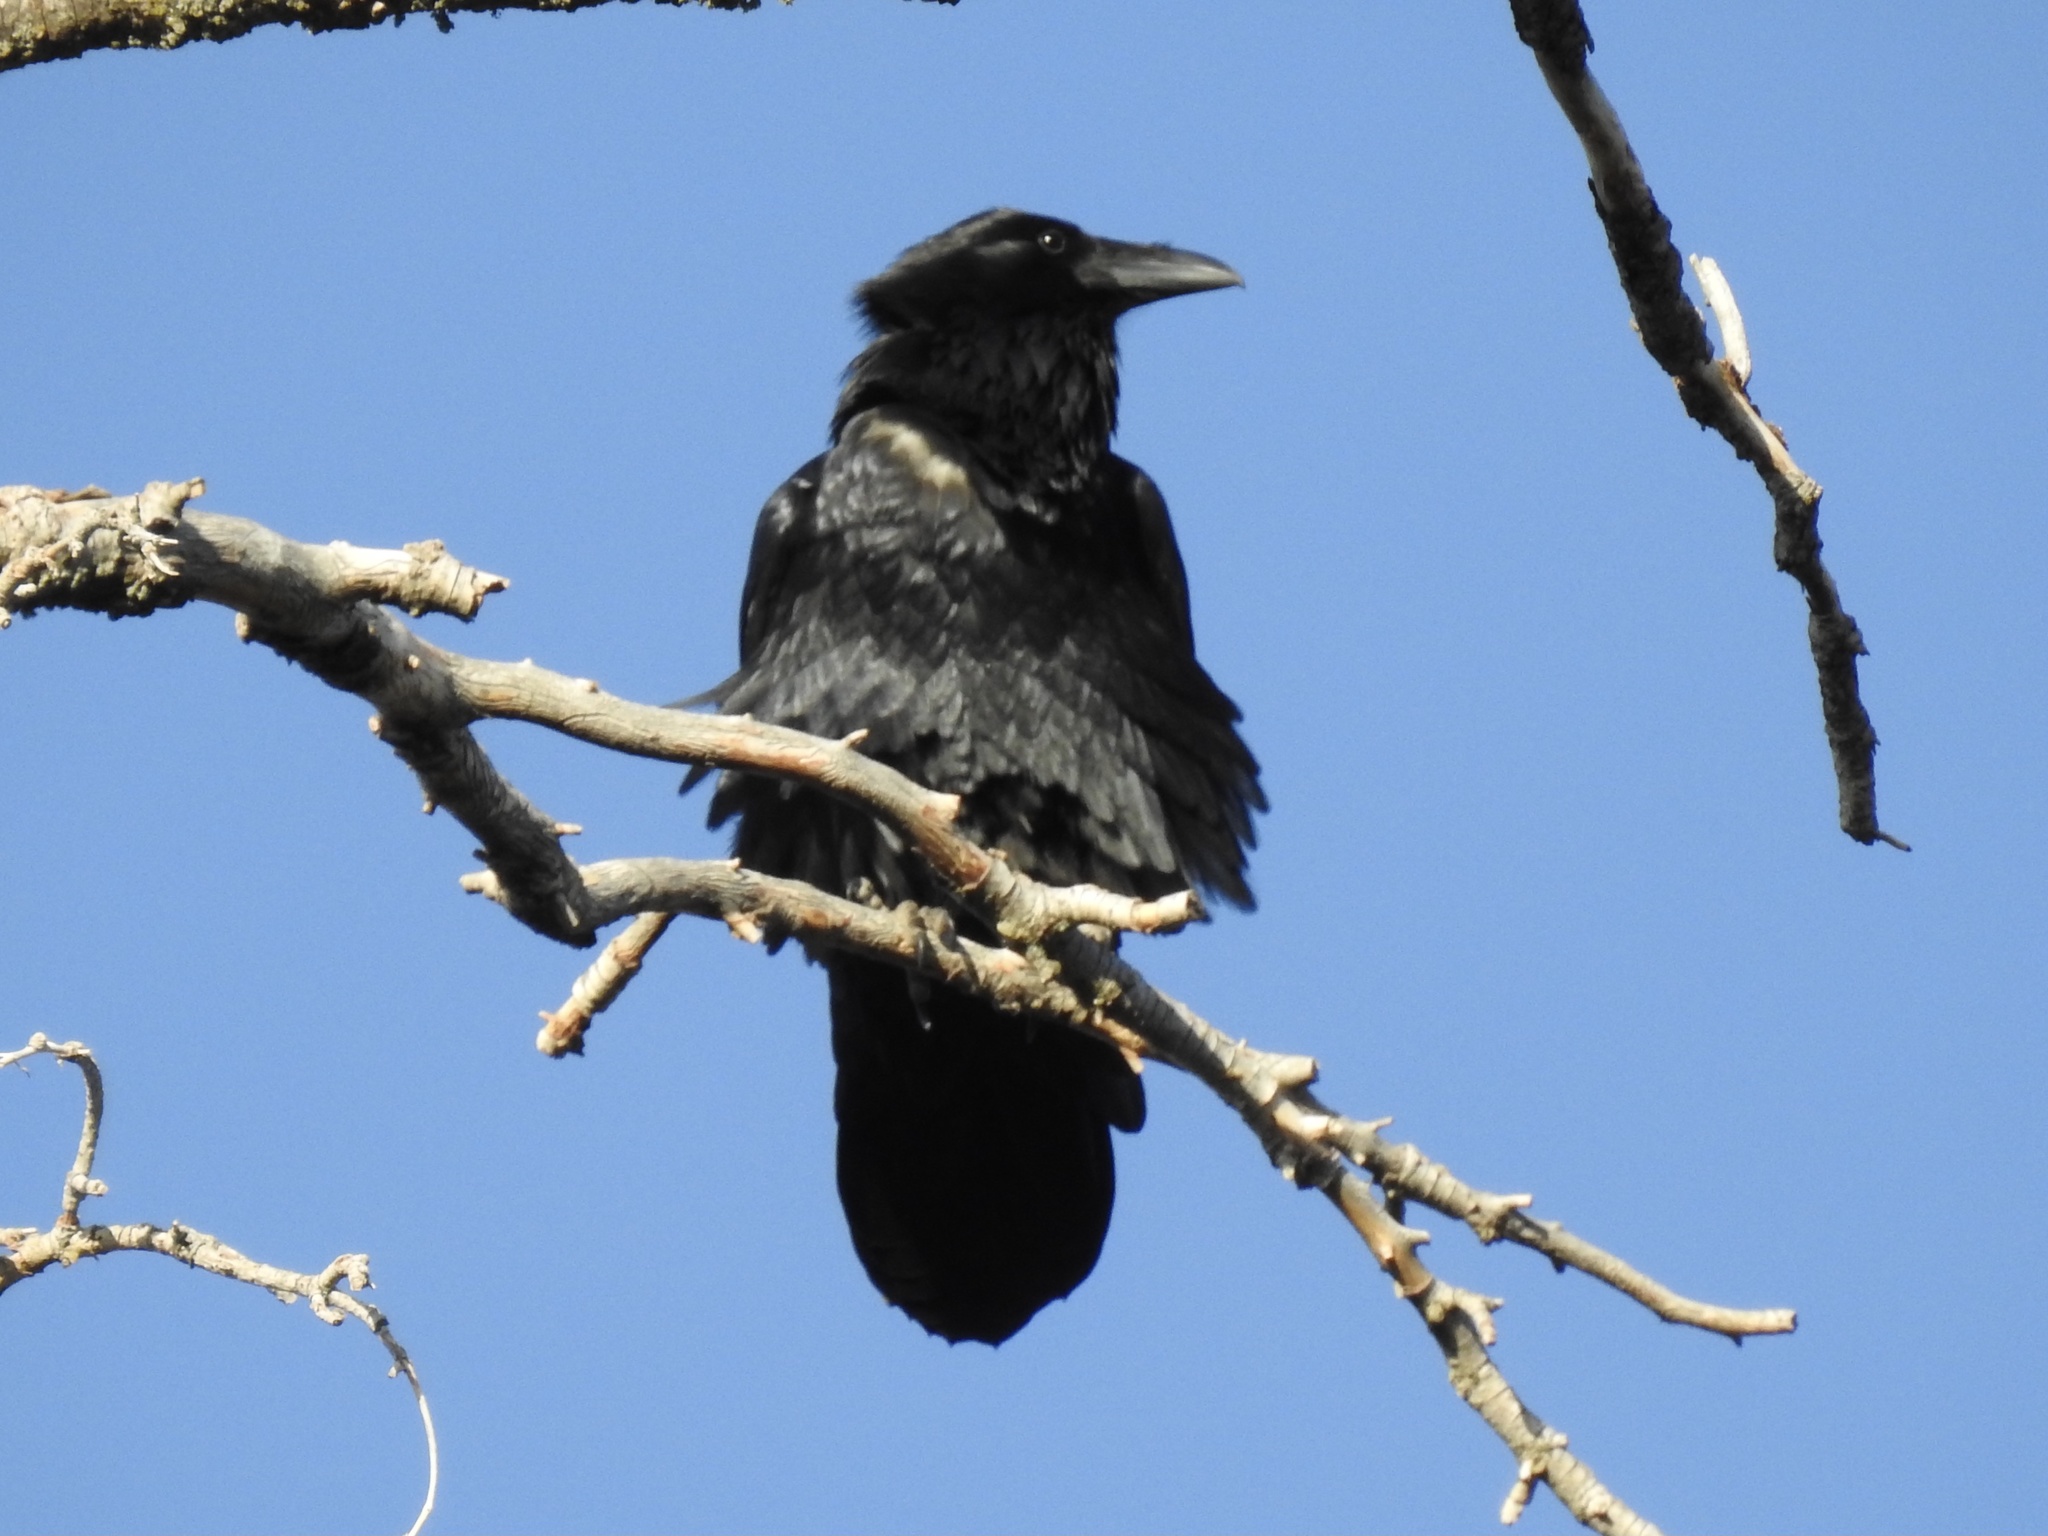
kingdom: Animalia
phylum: Chordata
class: Aves
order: Passeriformes
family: Corvidae
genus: Corvus
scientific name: Corvus corax
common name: Common raven
